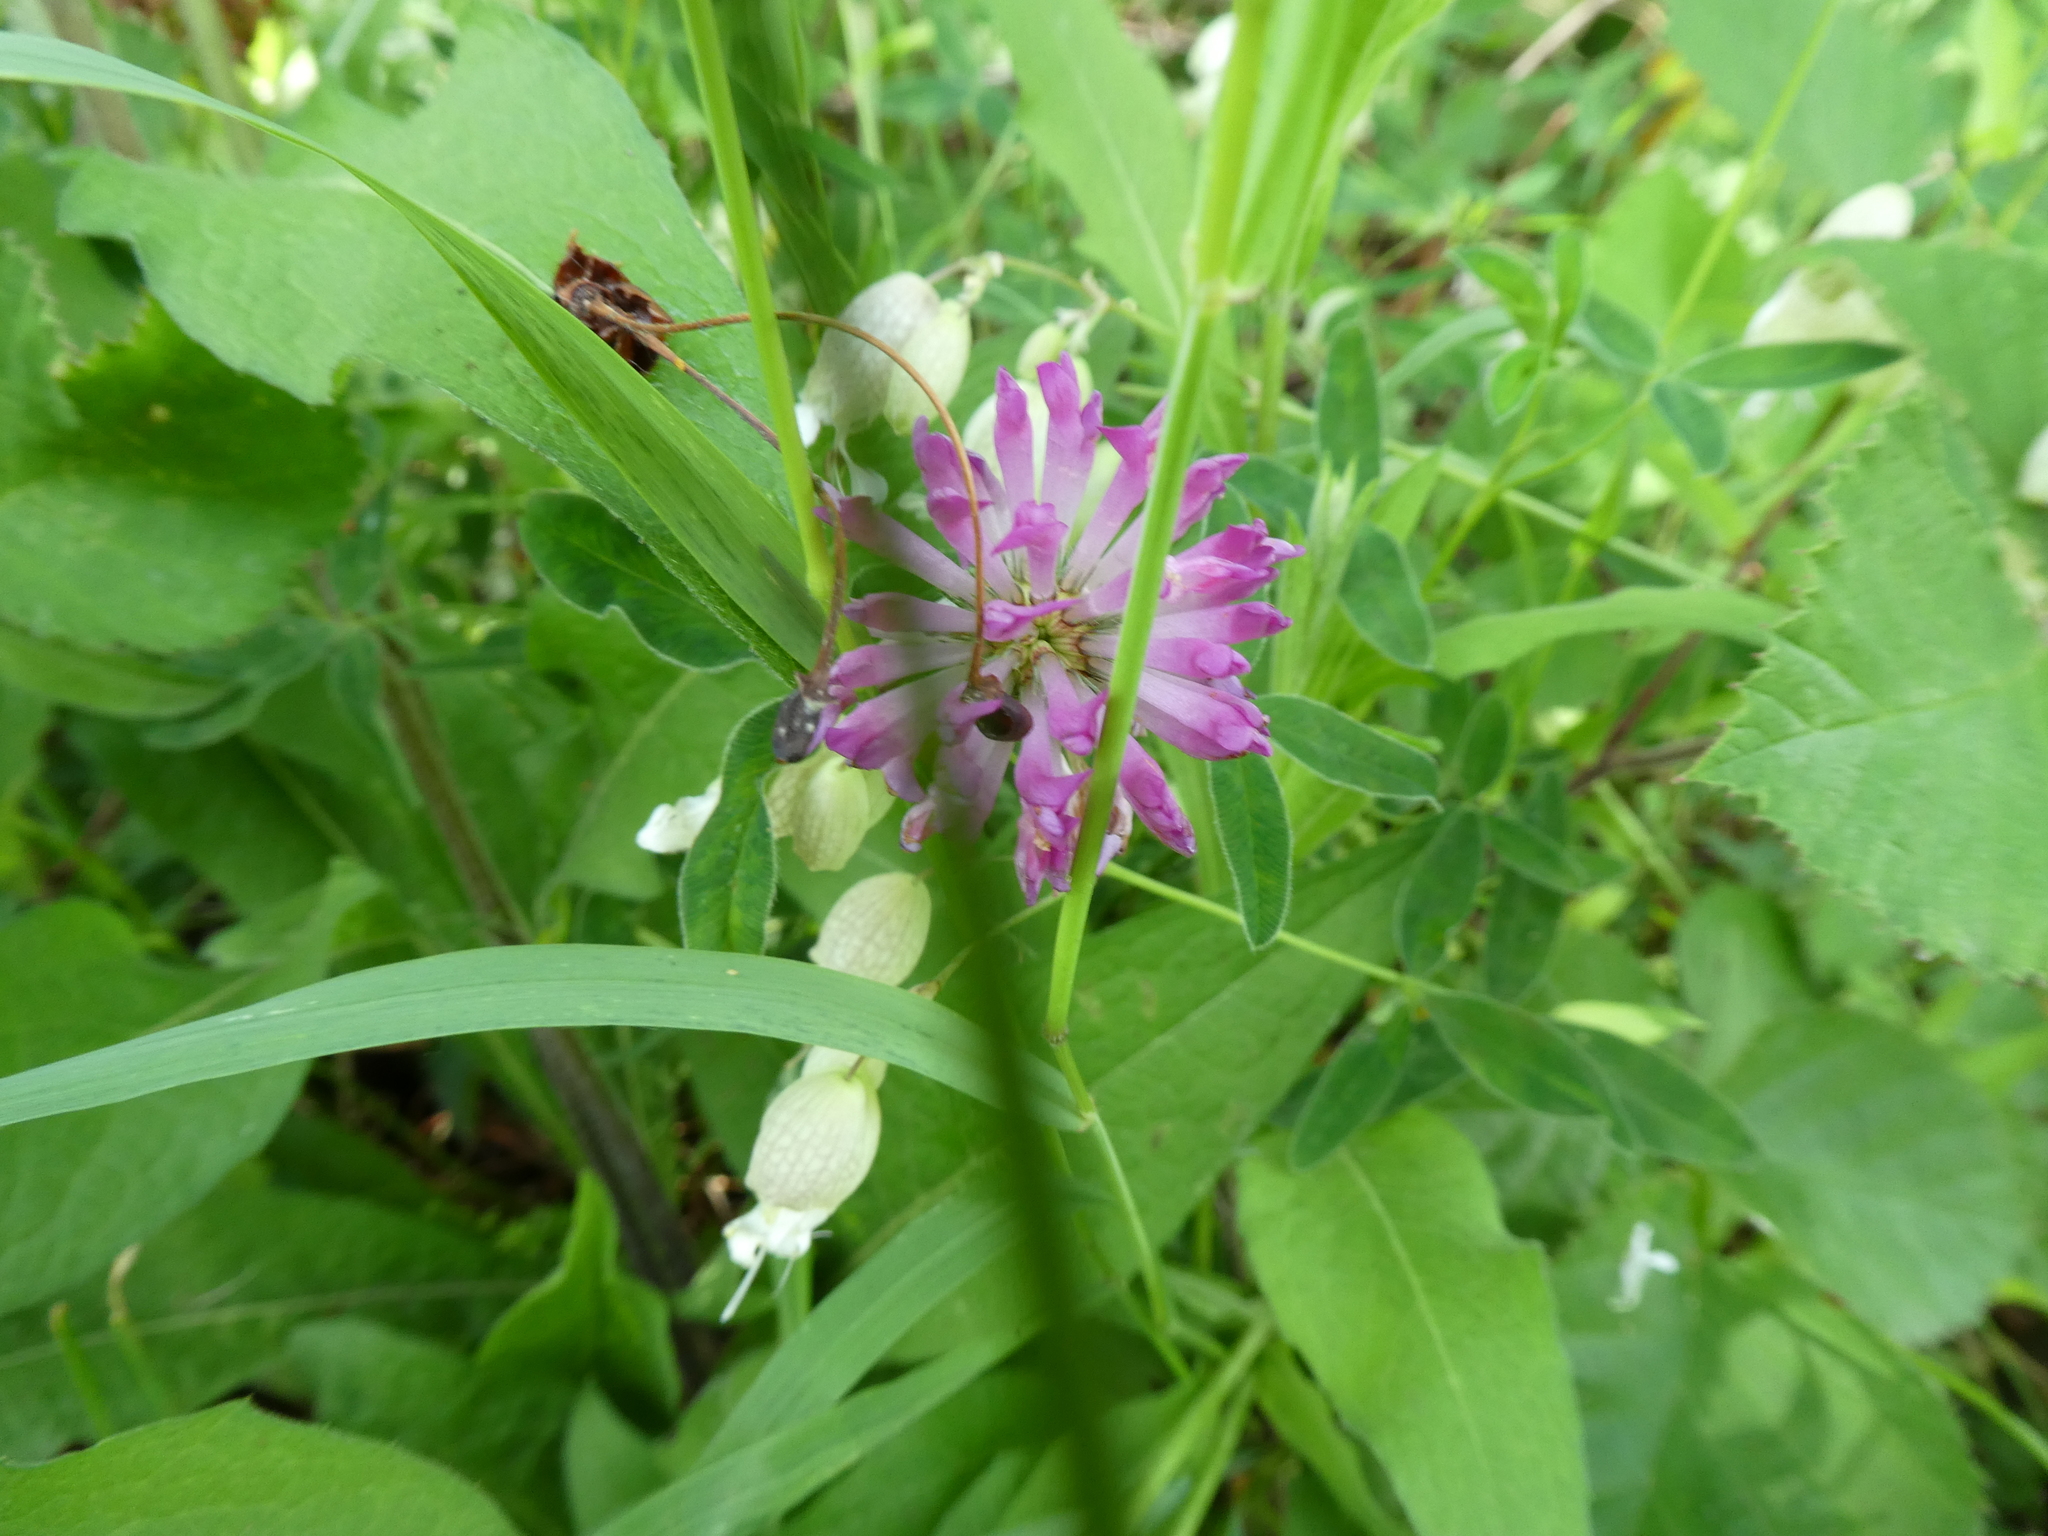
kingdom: Plantae
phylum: Tracheophyta
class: Magnoliopsida
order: Fabales
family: Fabaceae
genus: Trifolium
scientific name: Trifolium medium
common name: Zigzag clover
